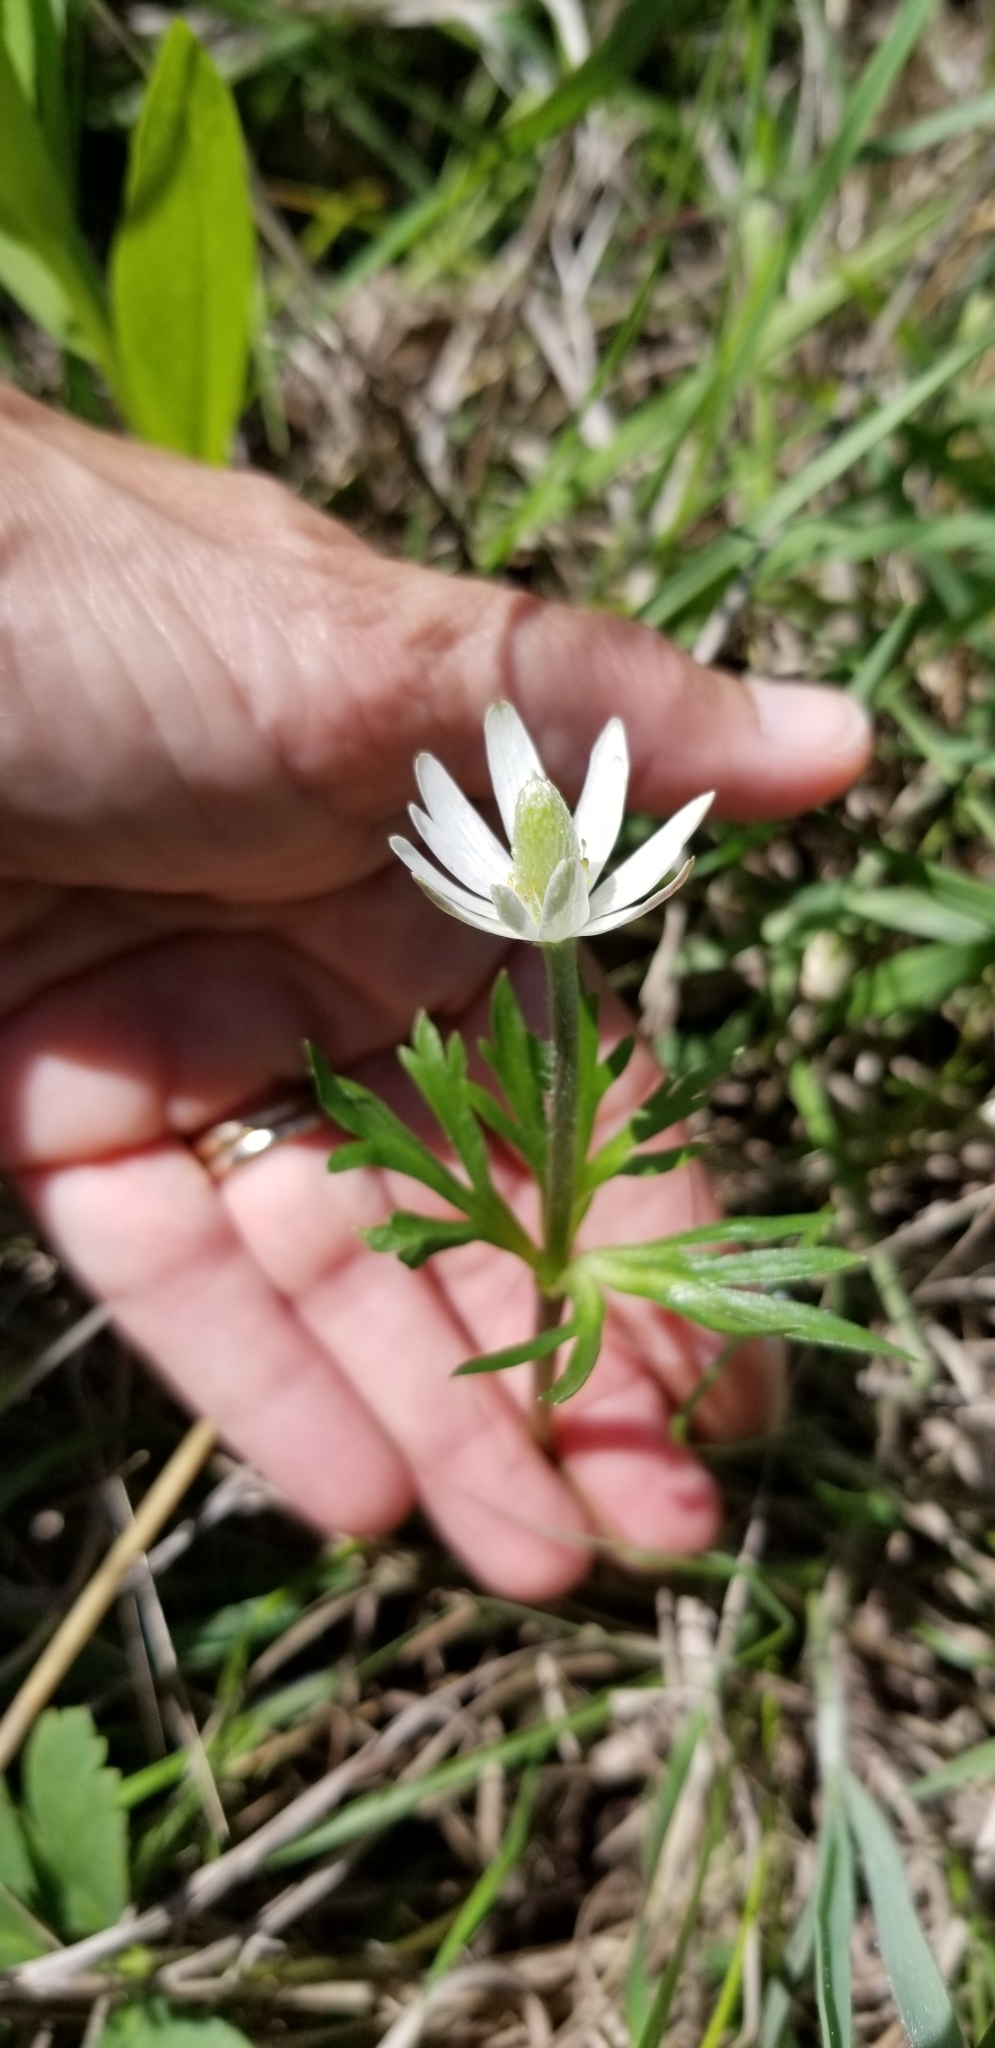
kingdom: Plantae
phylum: Tracheophyta
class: Magnoliopsida
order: Ranunculales
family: Ranunculaceae
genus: Anemone
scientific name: Anemone berlandieri
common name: Ten-petal anemone
